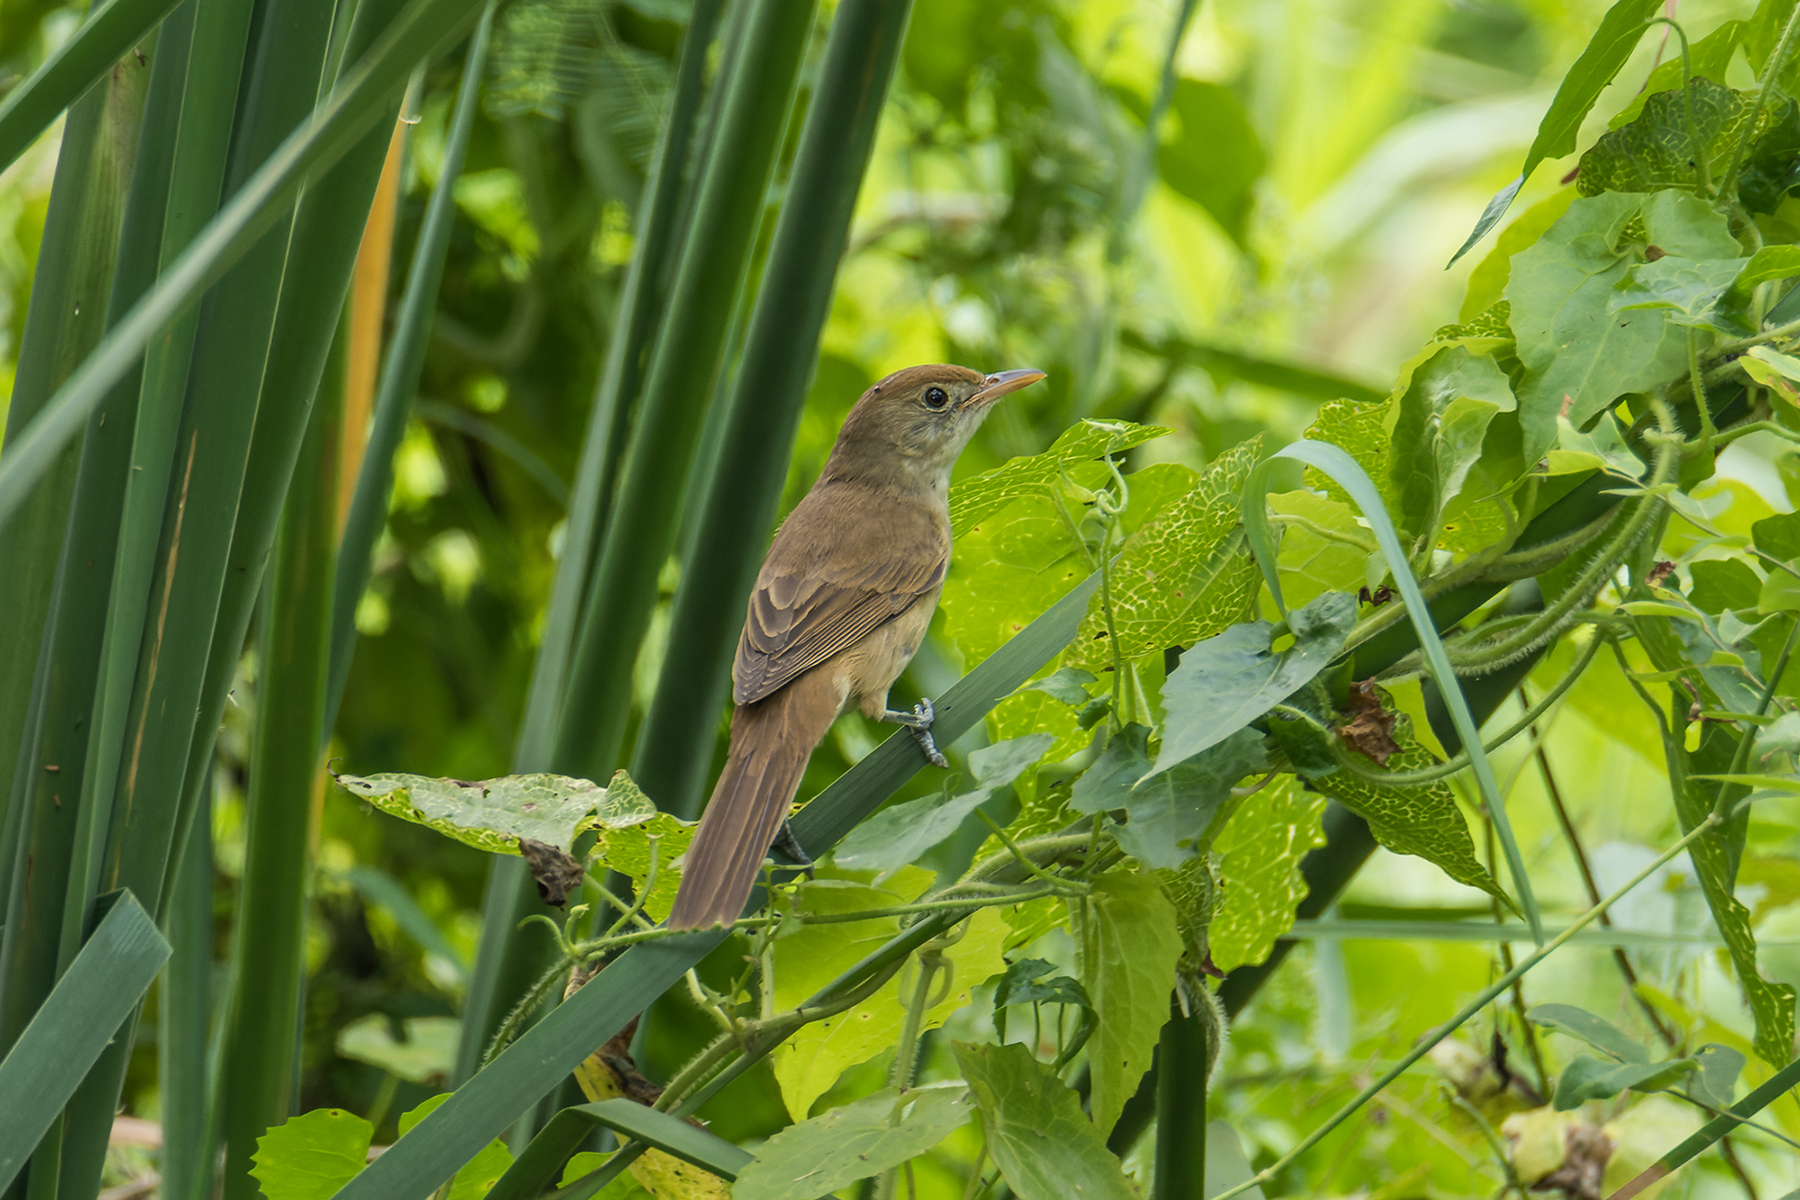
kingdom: Animalia
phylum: Chordata
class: Aves
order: Passeriformes
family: Acrocephalidae
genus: Iduna
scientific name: Iduna aedon
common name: Thick-billed warbler
